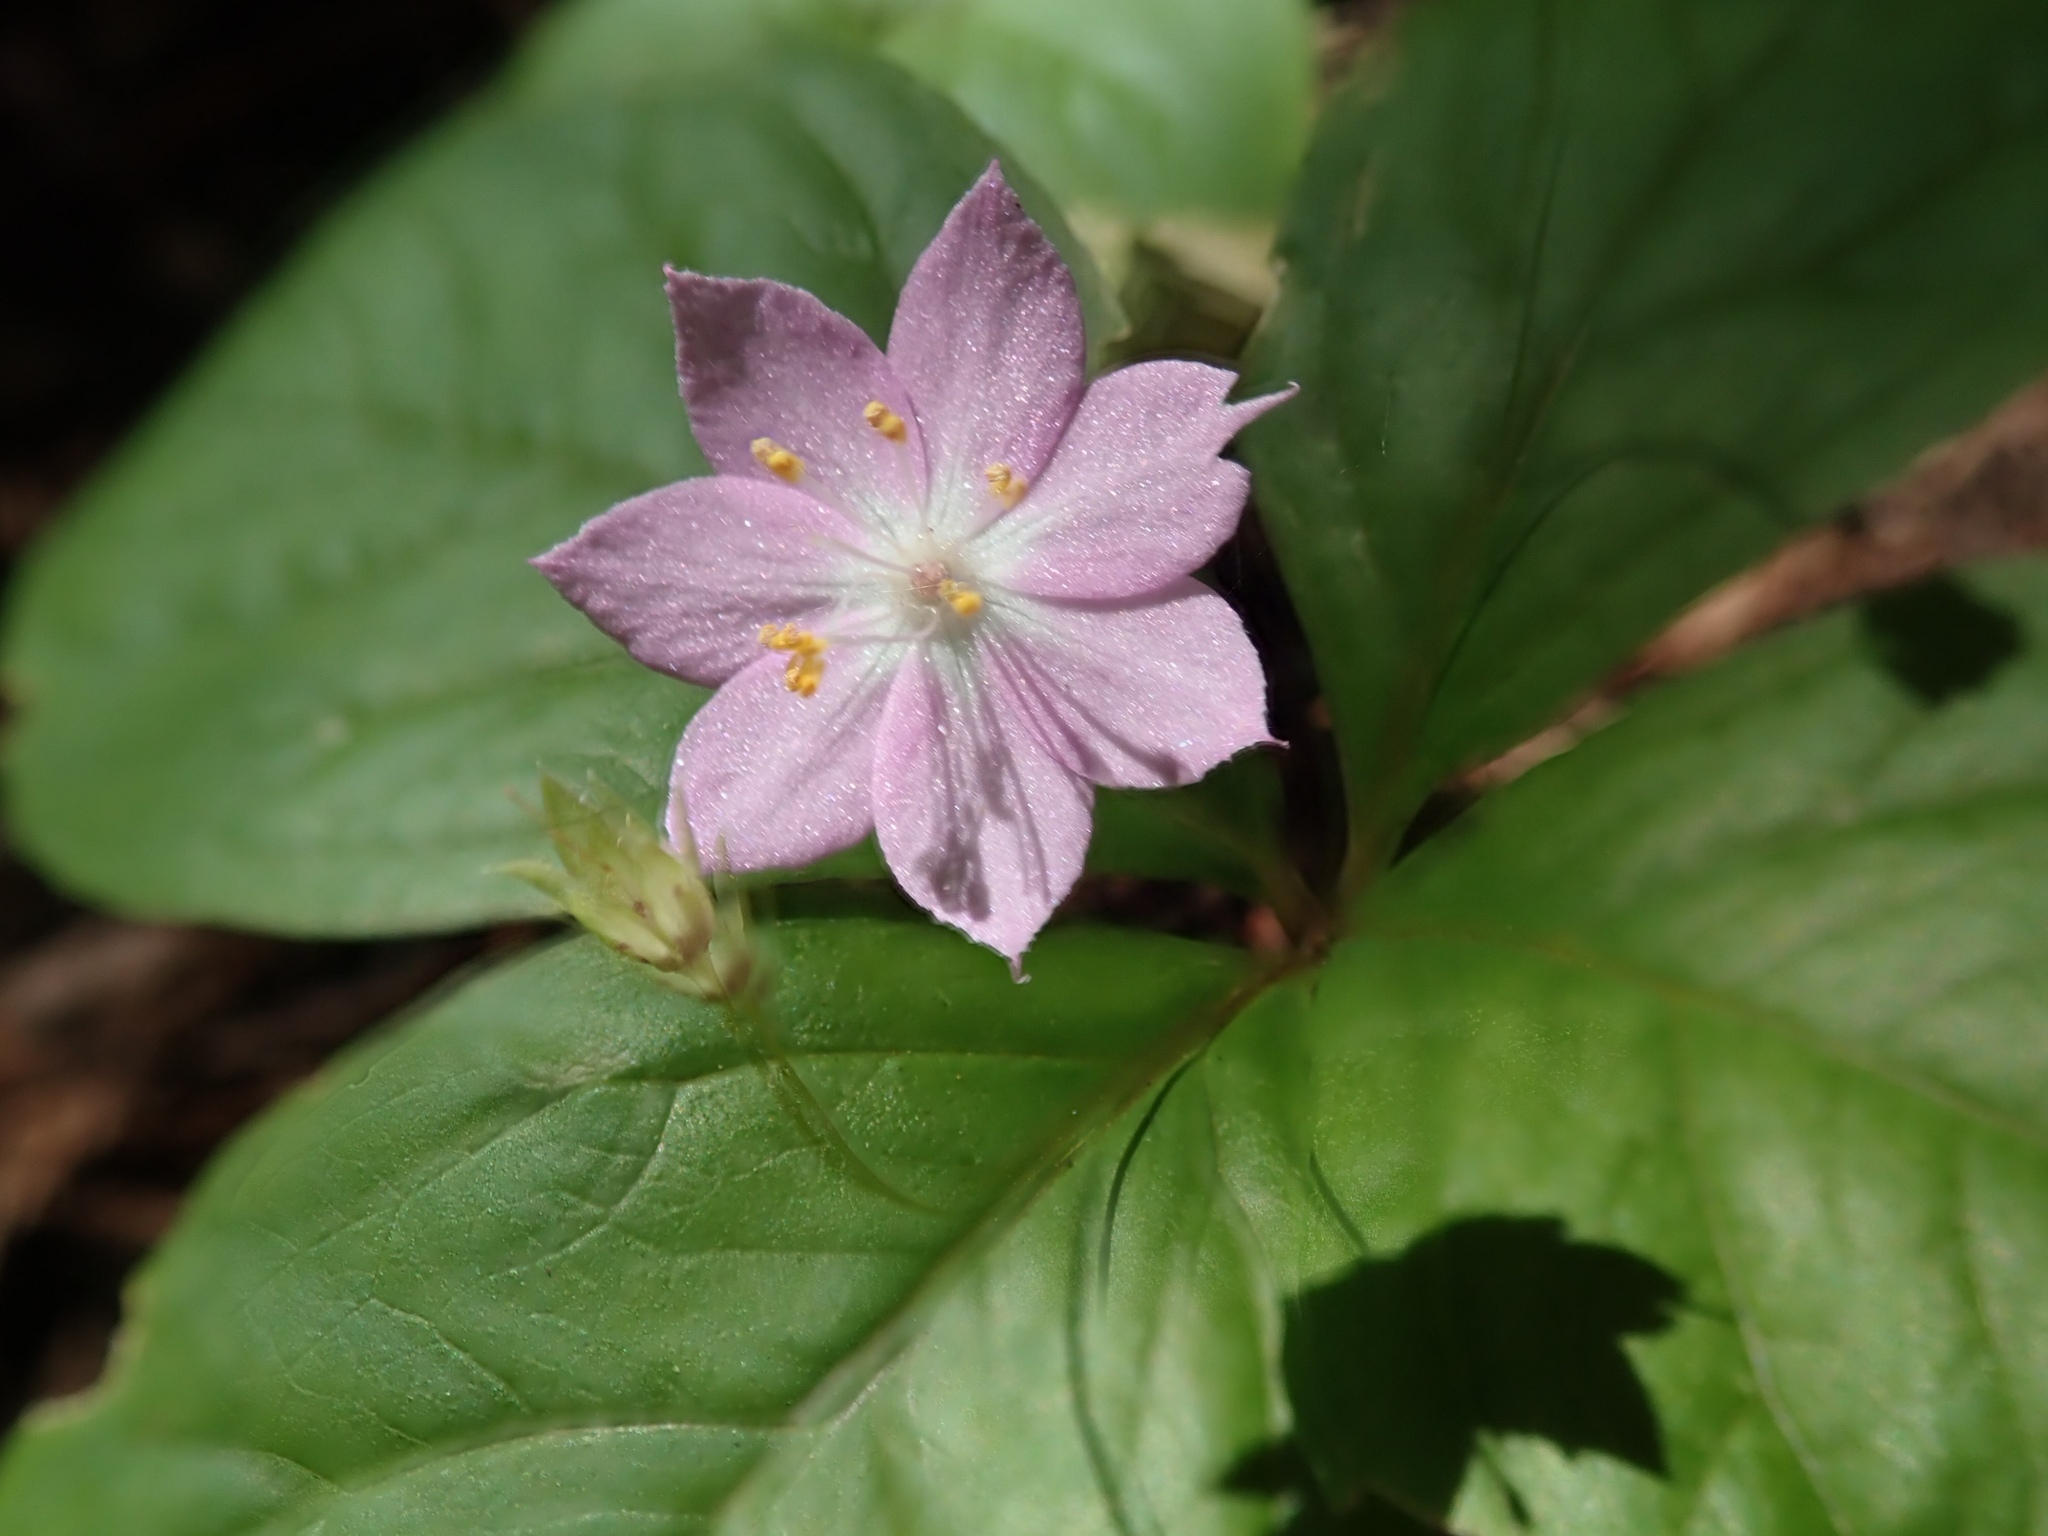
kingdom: Plantae
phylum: Tracheophyta
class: Magnoliopsida
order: Ericales
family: Primulaceae
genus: Lysimachia
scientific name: Lysimachia latifolia
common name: Pacific starflower
